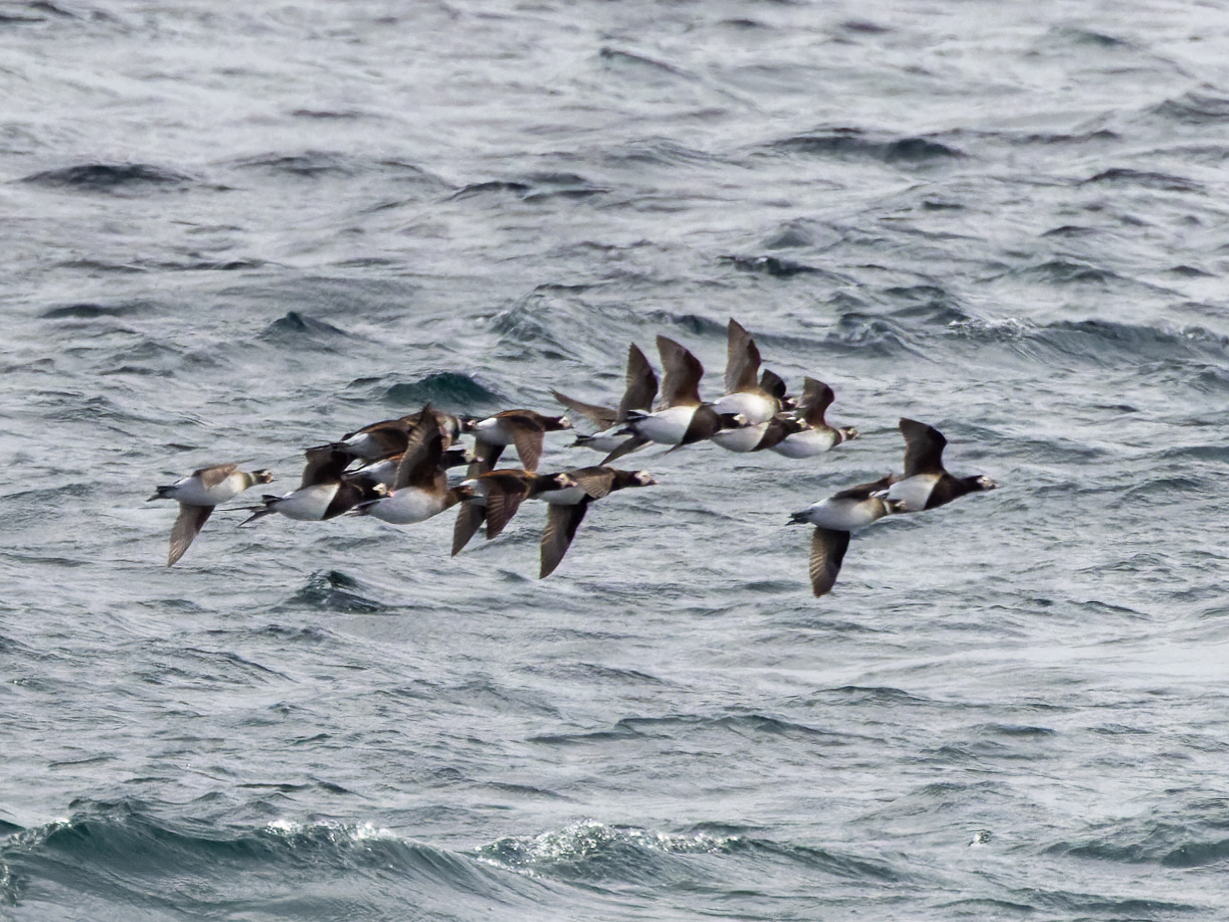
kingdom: Animalia
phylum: Chordata
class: Aves
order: Anseriformes
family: Anatidae
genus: Clangula
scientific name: Clangula hyemalis
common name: Long-tailed duck
